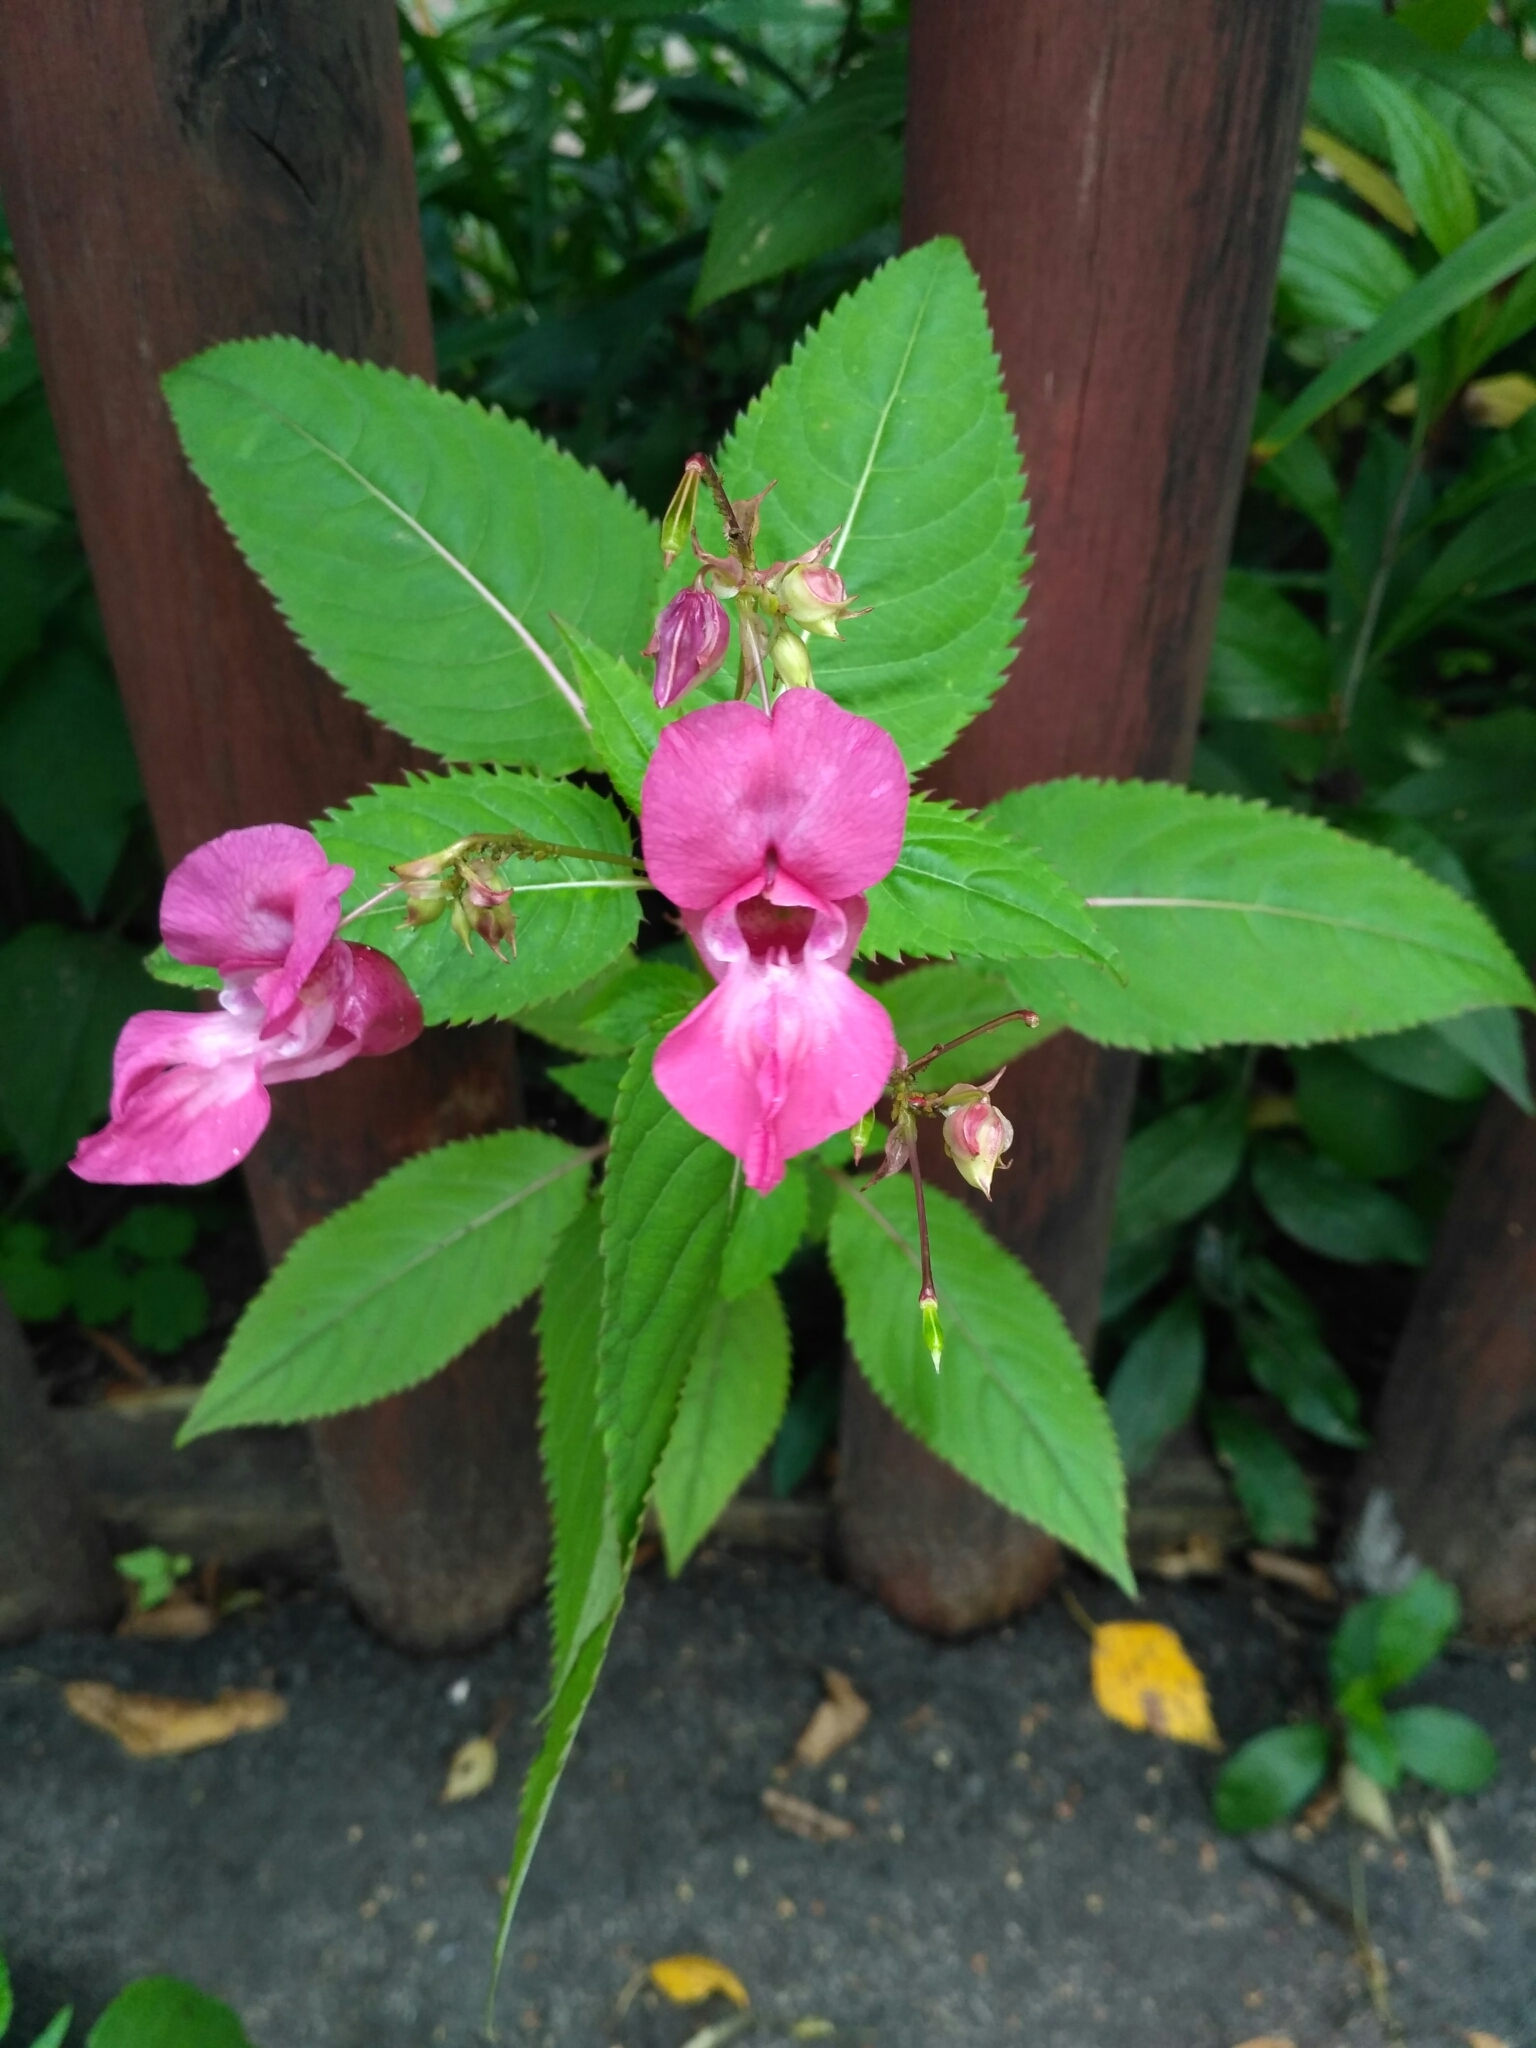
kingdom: Plantae
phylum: Tracheophyta
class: Magnoliopsida
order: Ericales
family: Balsaminaceae
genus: Impatiens
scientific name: Impatiens glandulifera
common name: Himalayan balsam
